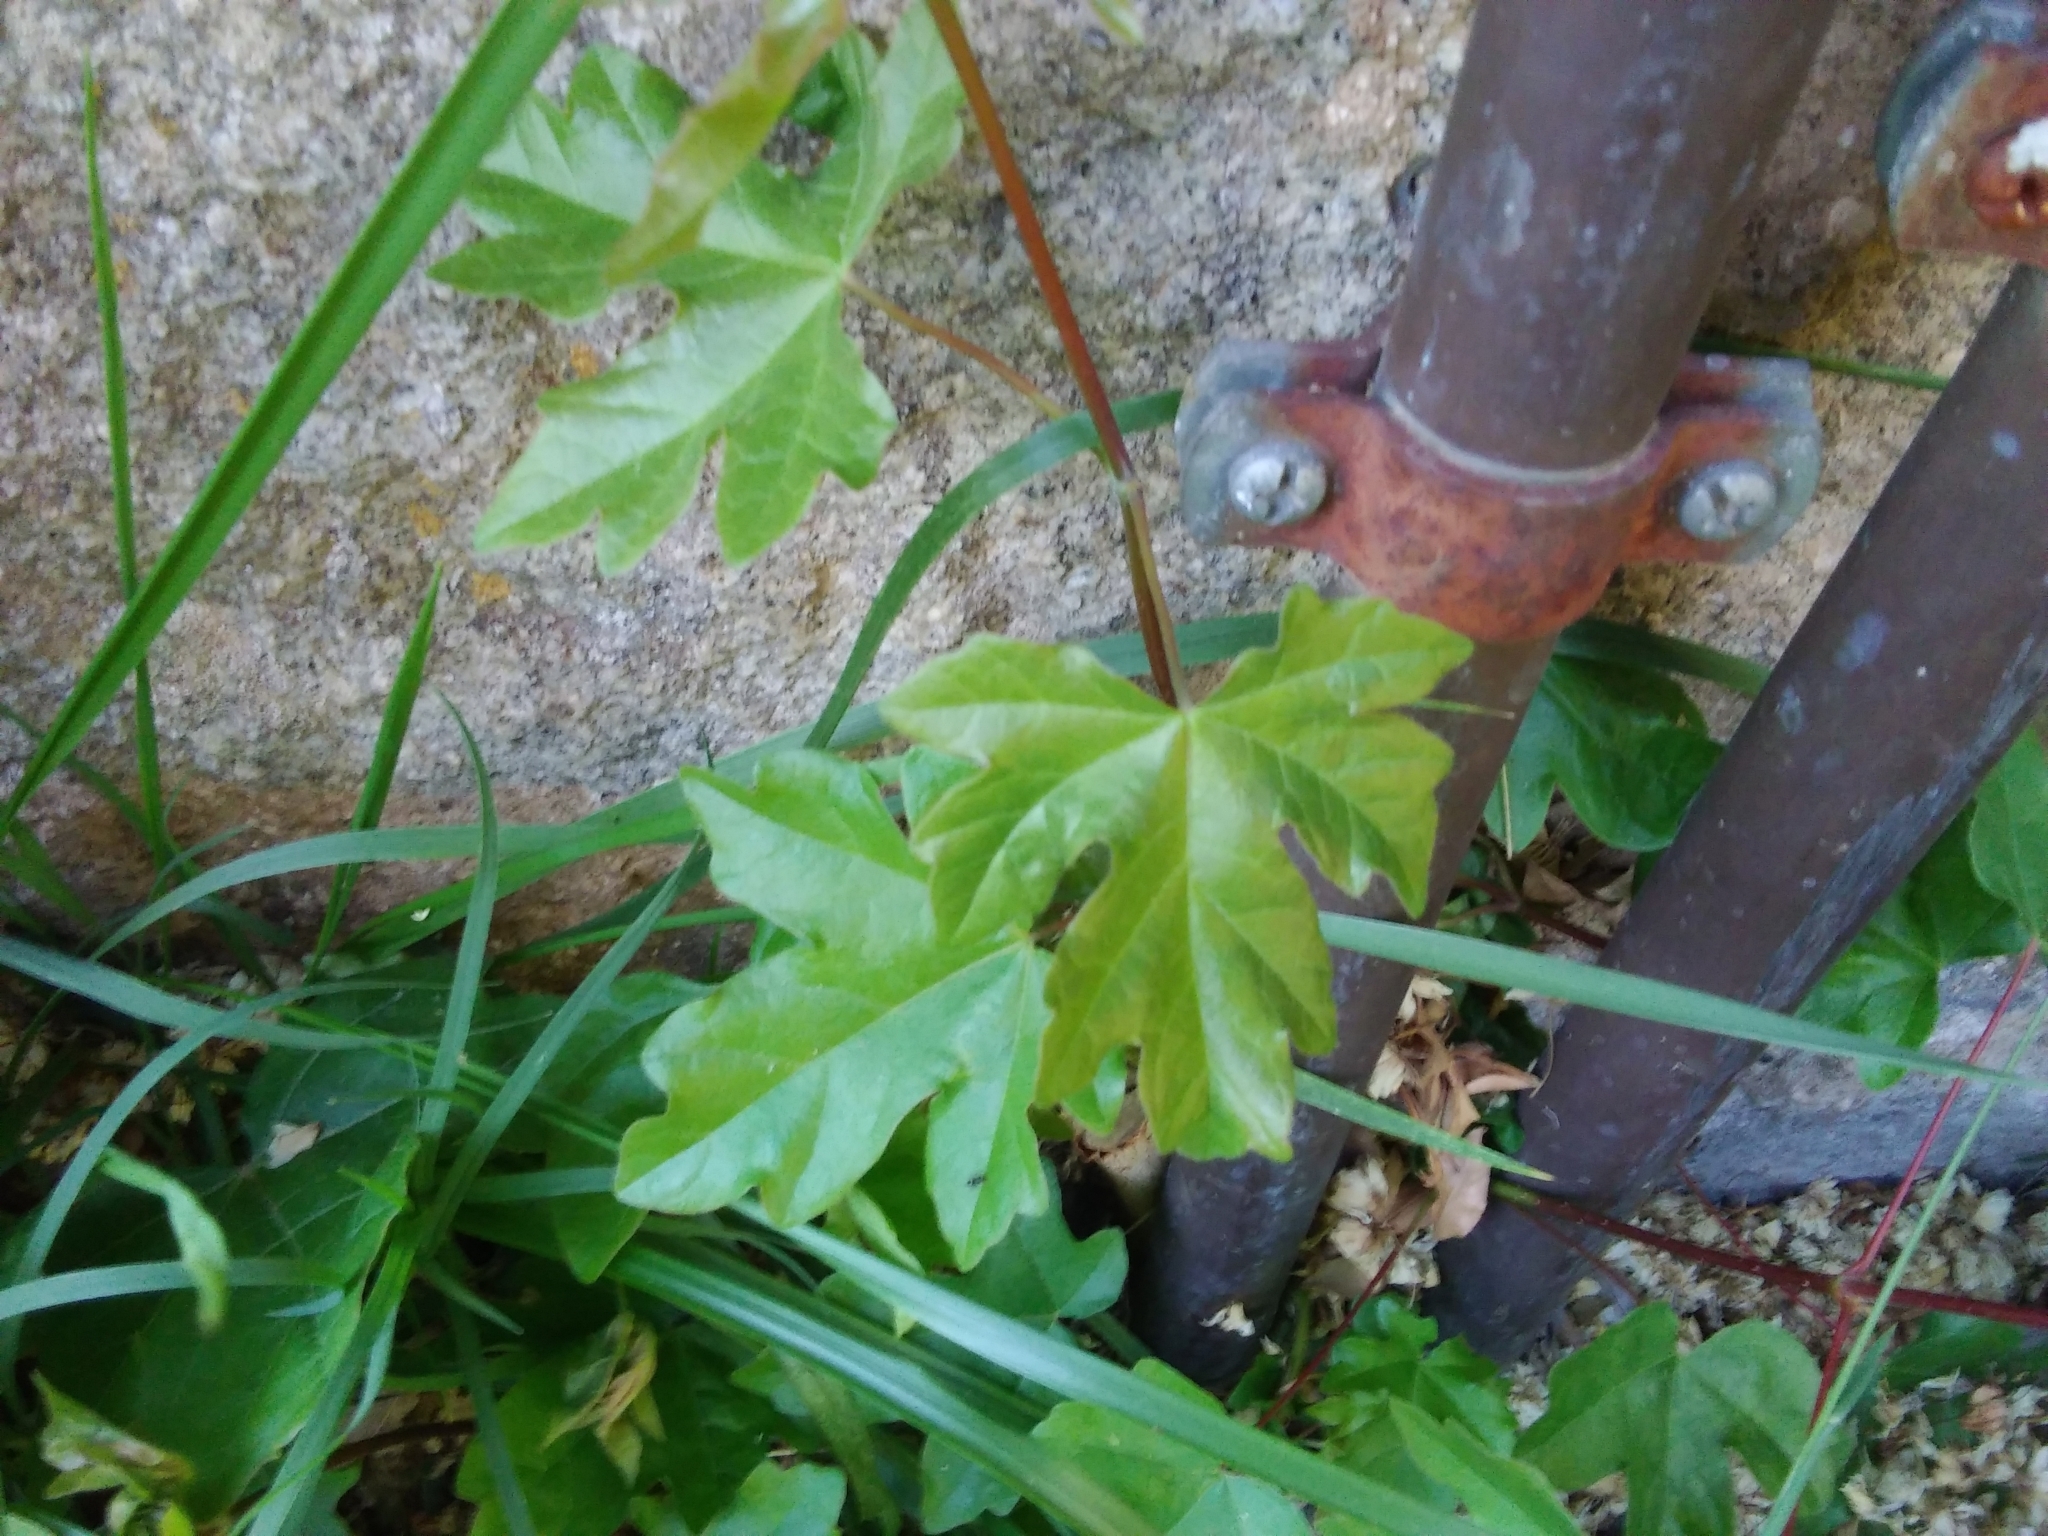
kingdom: Plantae
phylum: Tracheophyta
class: Magnoliopsida
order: Sapindales
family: Sapindaceae
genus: Acer
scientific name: Acer campestre
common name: Field maple
